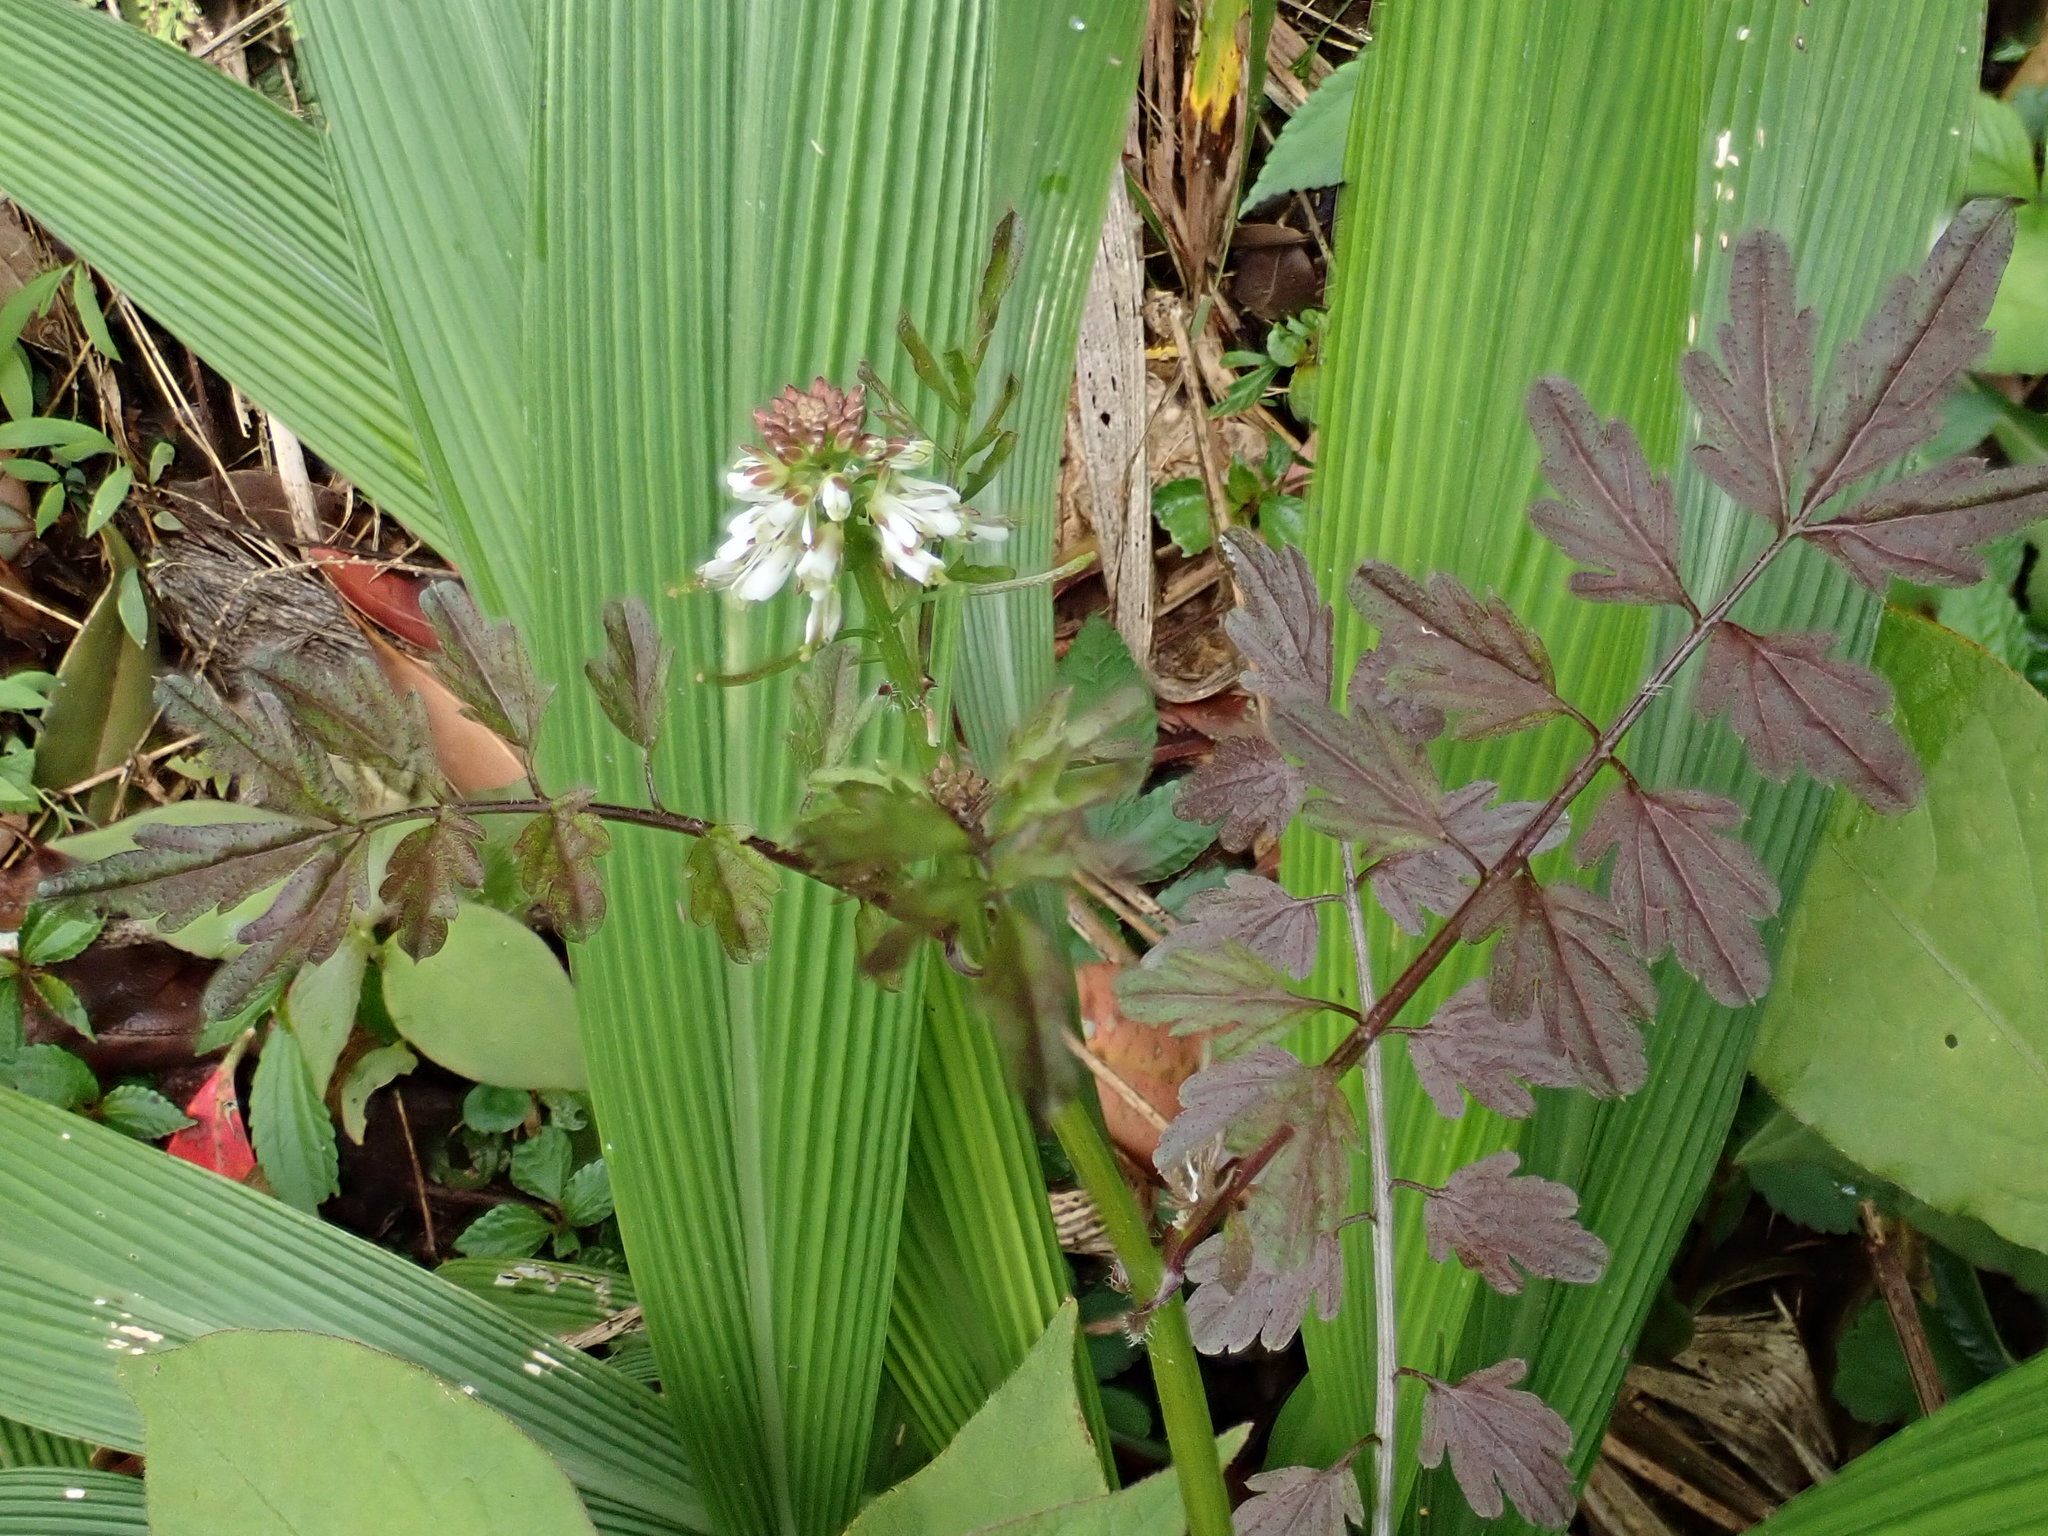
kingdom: Plantae
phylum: Tracheophyta
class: Magnoliopsida
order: Brassicales
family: Brassicaceae
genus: Cardamine
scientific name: Cardamine impatiens
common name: Narrow-leaved bitter-cress
